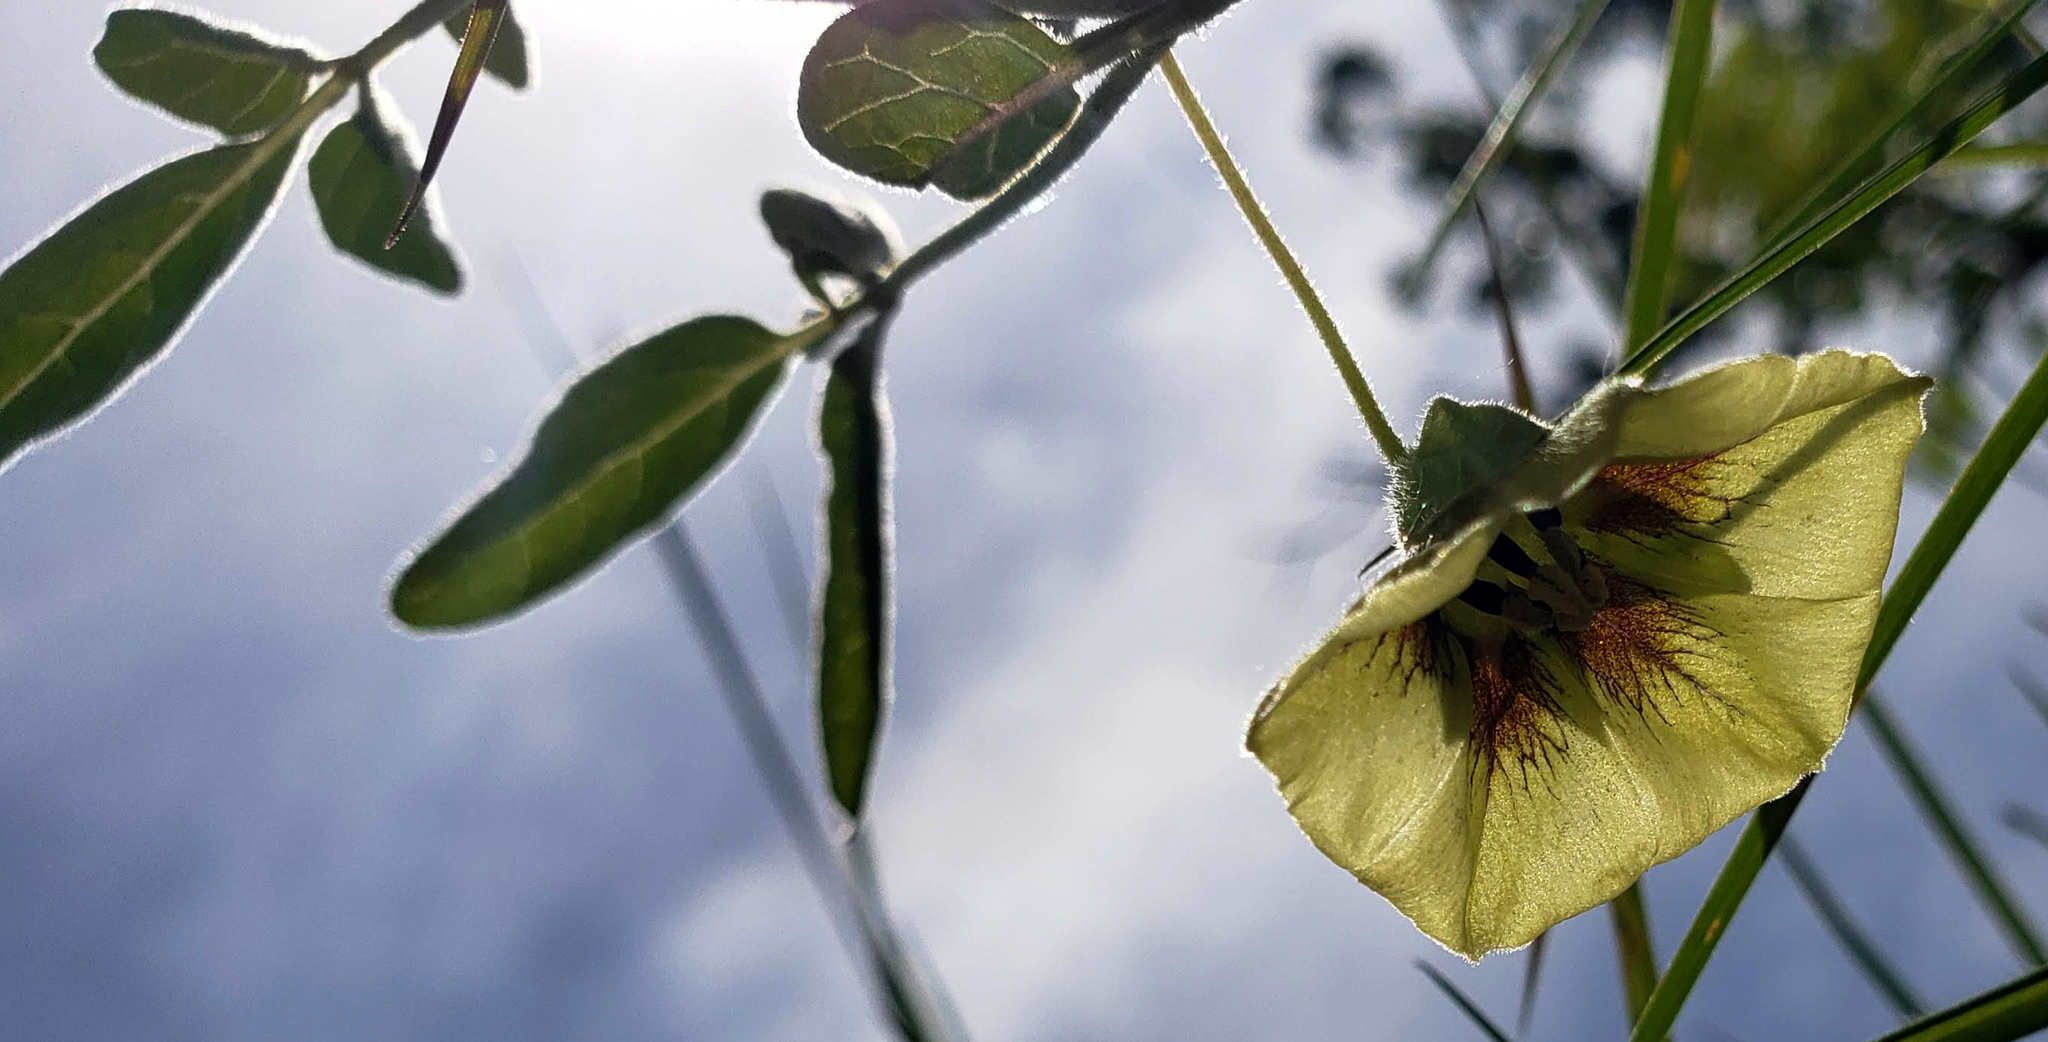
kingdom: Plantae
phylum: Tracheophyta
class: Magnoliopsida
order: Solanales
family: Solanaceae
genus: Physalis
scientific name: Physalis virginiana
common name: Virginia ground-cherry
